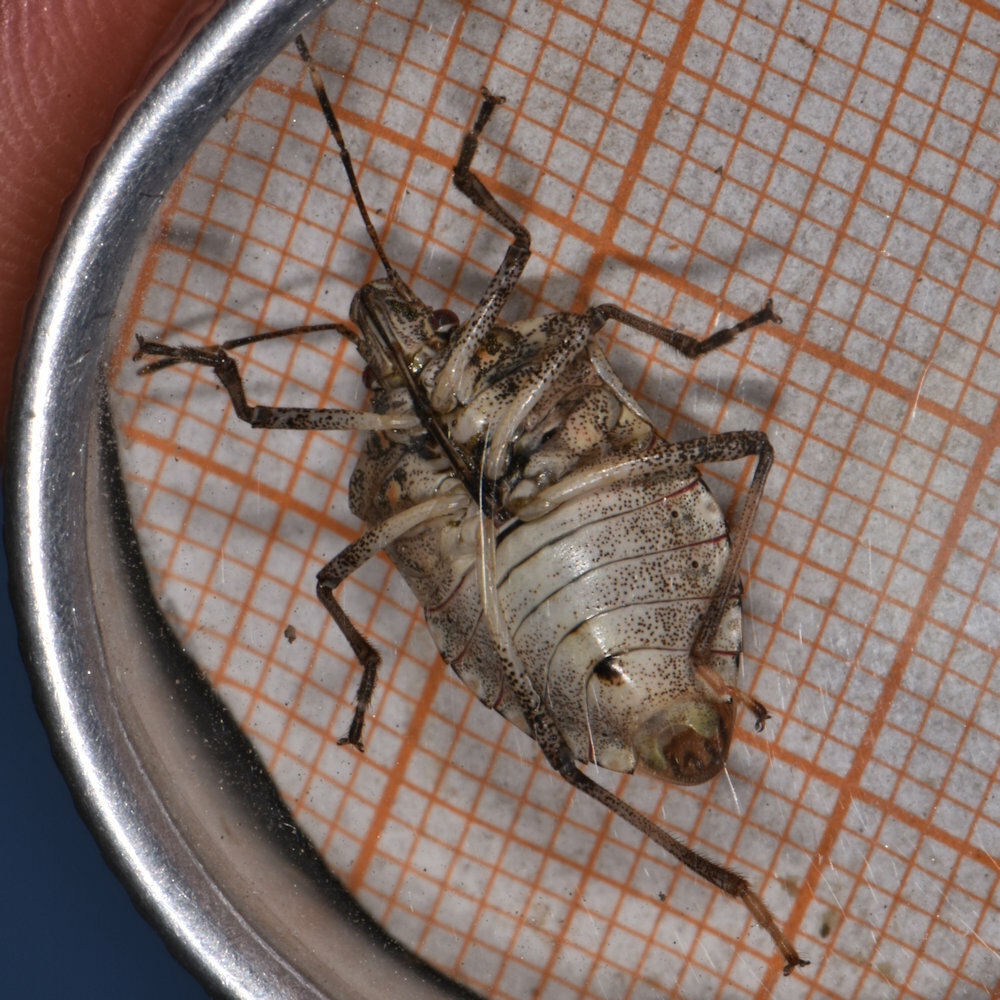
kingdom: Animalia
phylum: Arthropoda
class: Insecta
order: Hemiptera
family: Pentatomidae
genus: Halyomorpha
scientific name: Halyomorpha halys
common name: Brown marmorated stink bug
